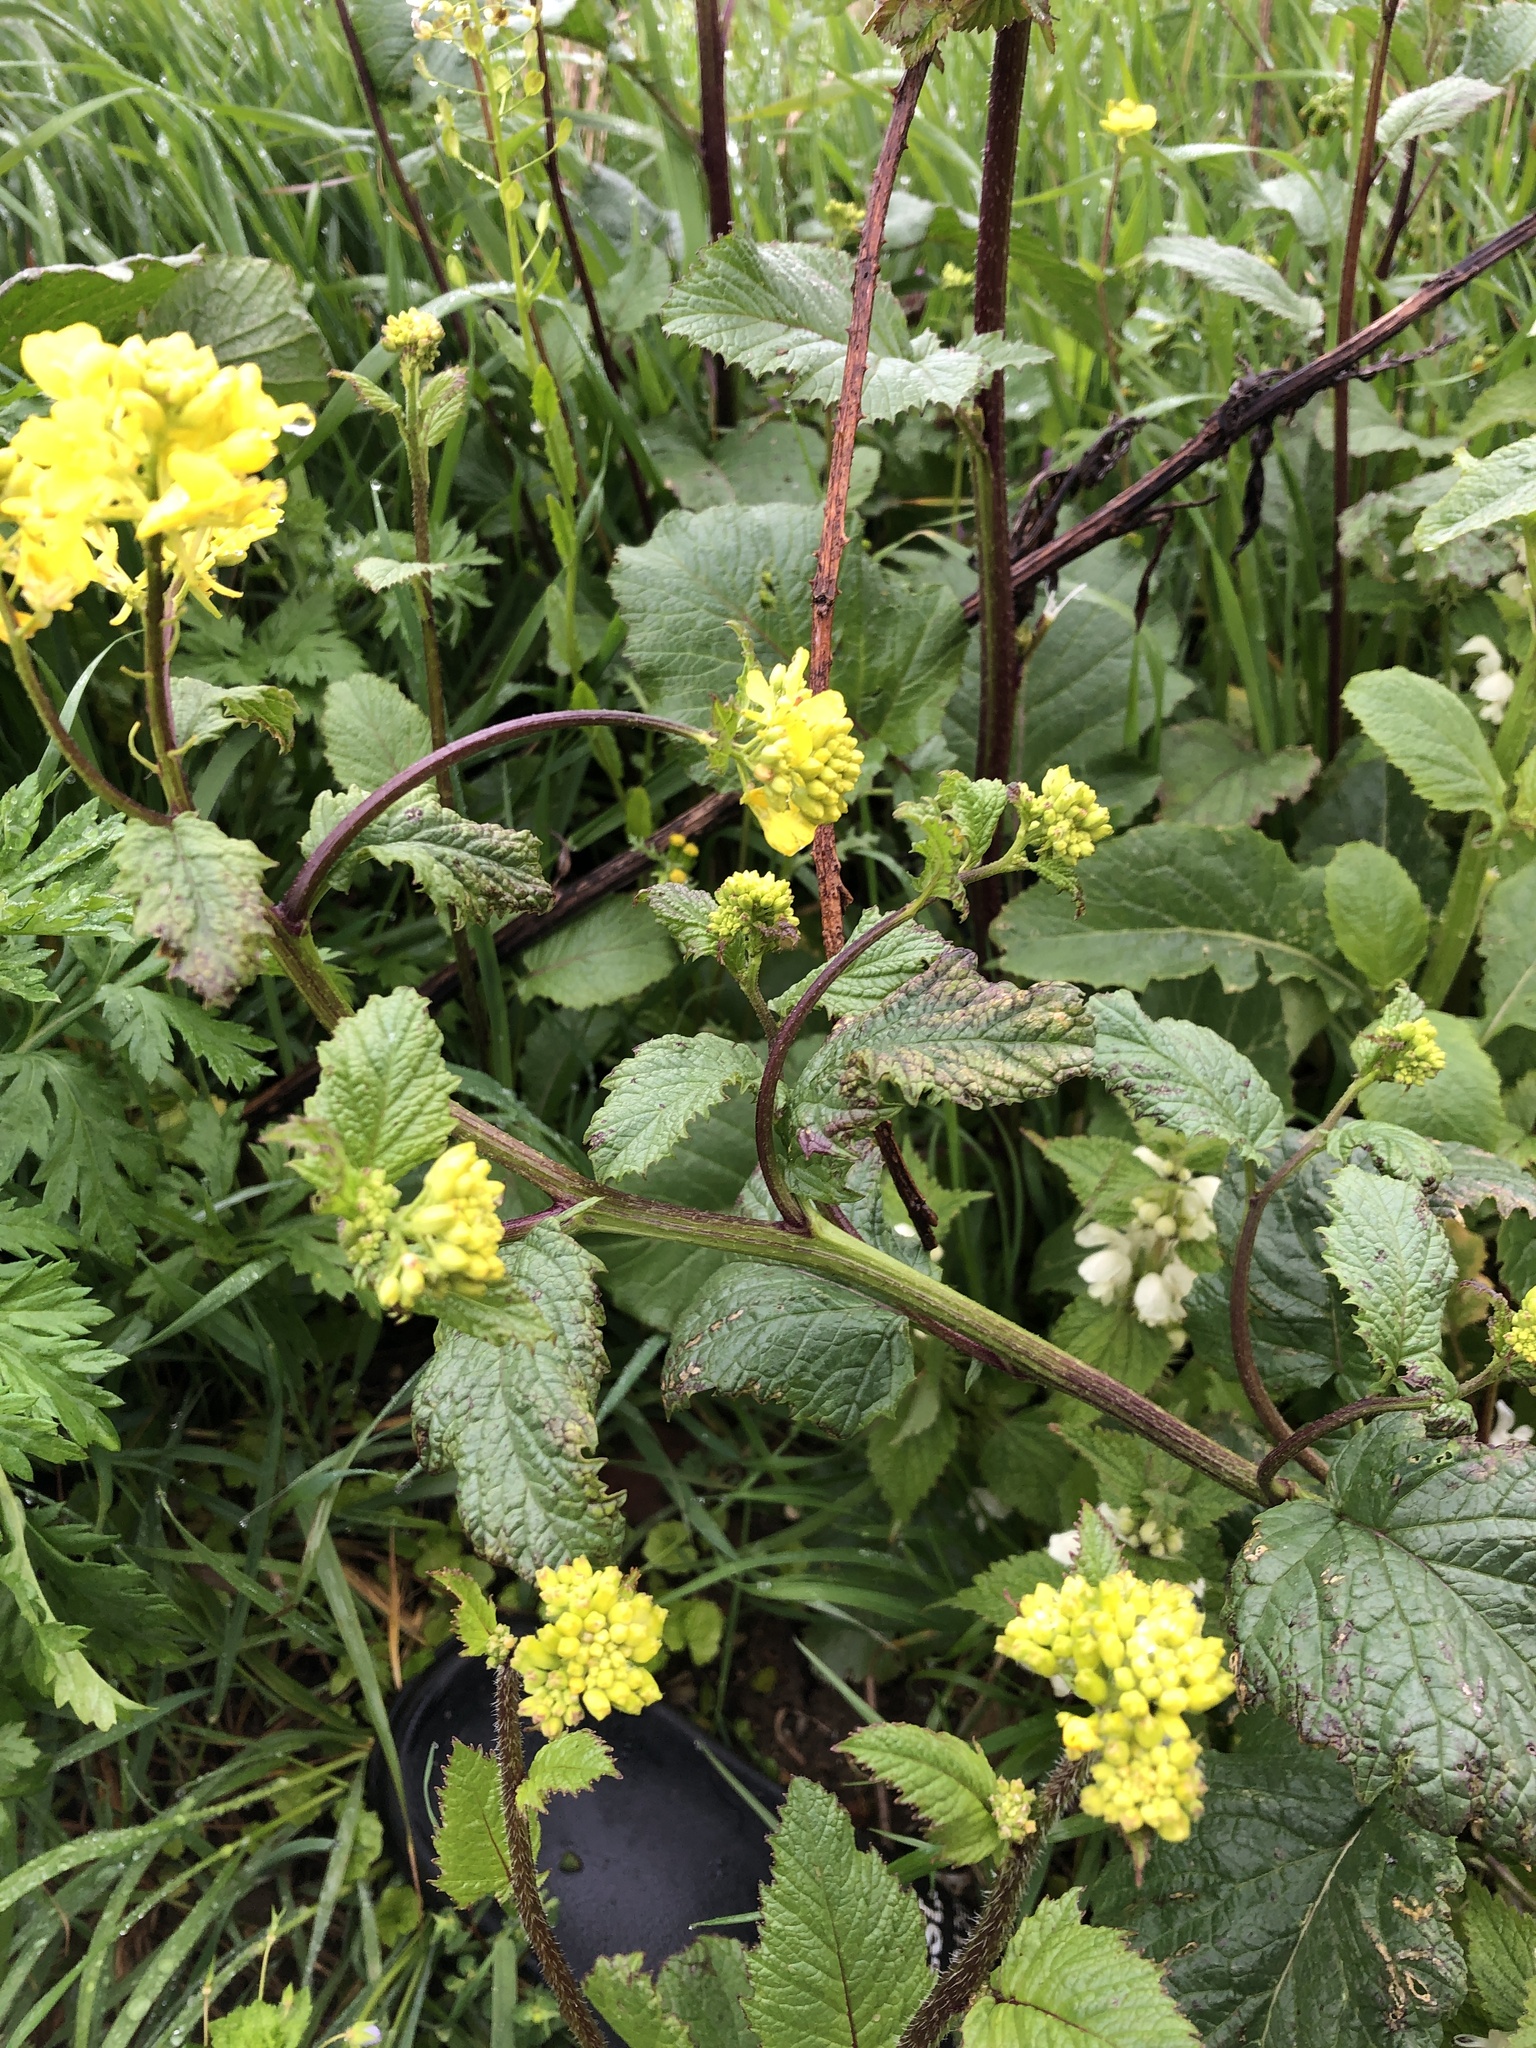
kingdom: Plantae
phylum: Tracheophyta
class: Magnoliopsida
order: Brassicales
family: Brassicaceae
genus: Sinapis
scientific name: Sinapis arvensis
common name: Charlock
